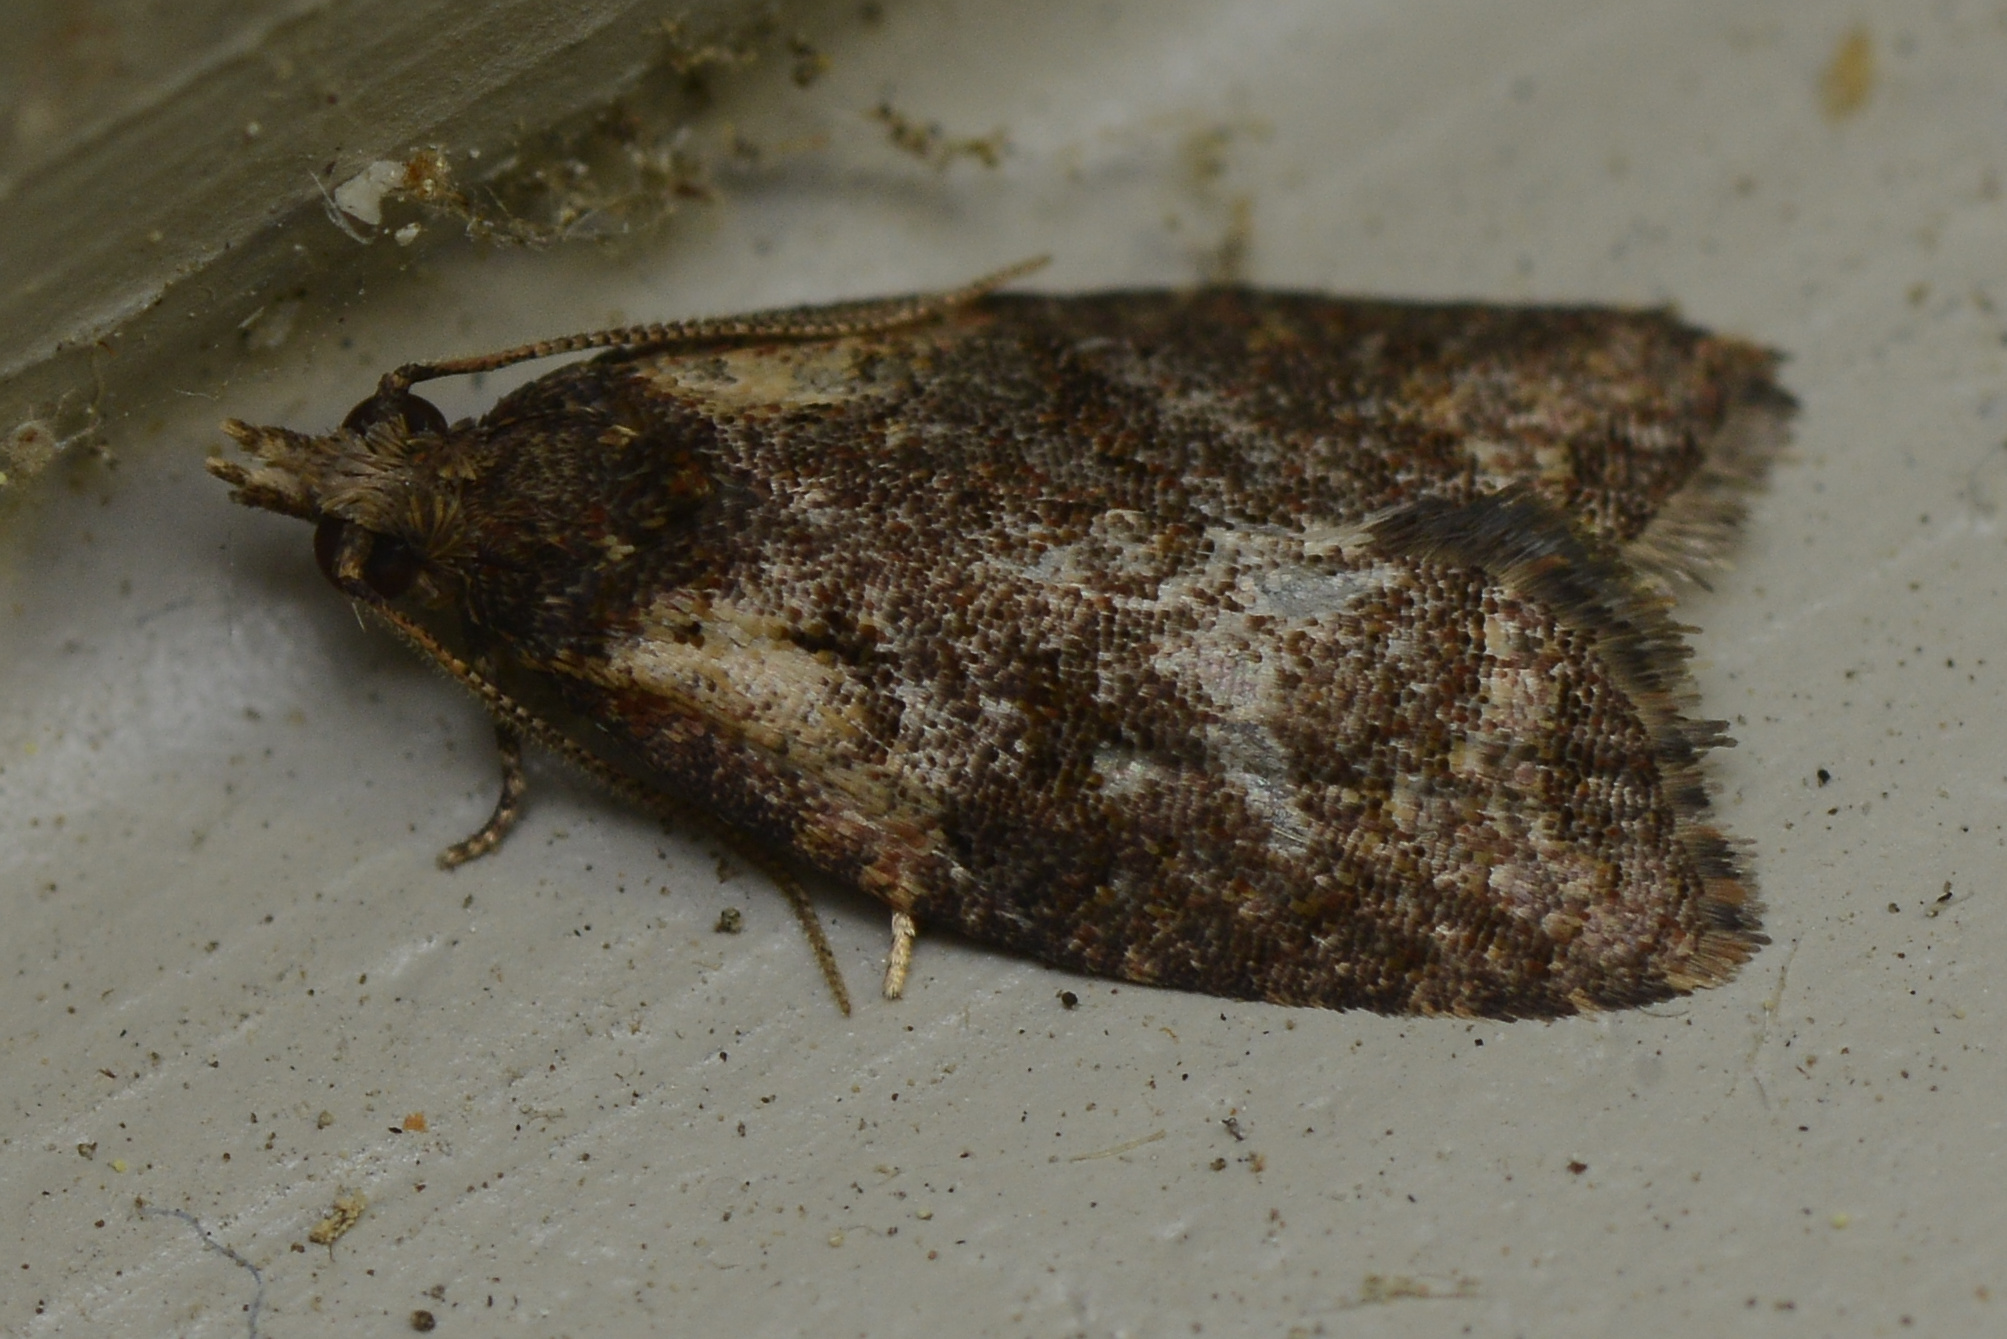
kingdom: Animalia
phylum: Arthropoda
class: Insecta
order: Lepidoptera
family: Tortricidae
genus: Capua
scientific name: Capua intractana
